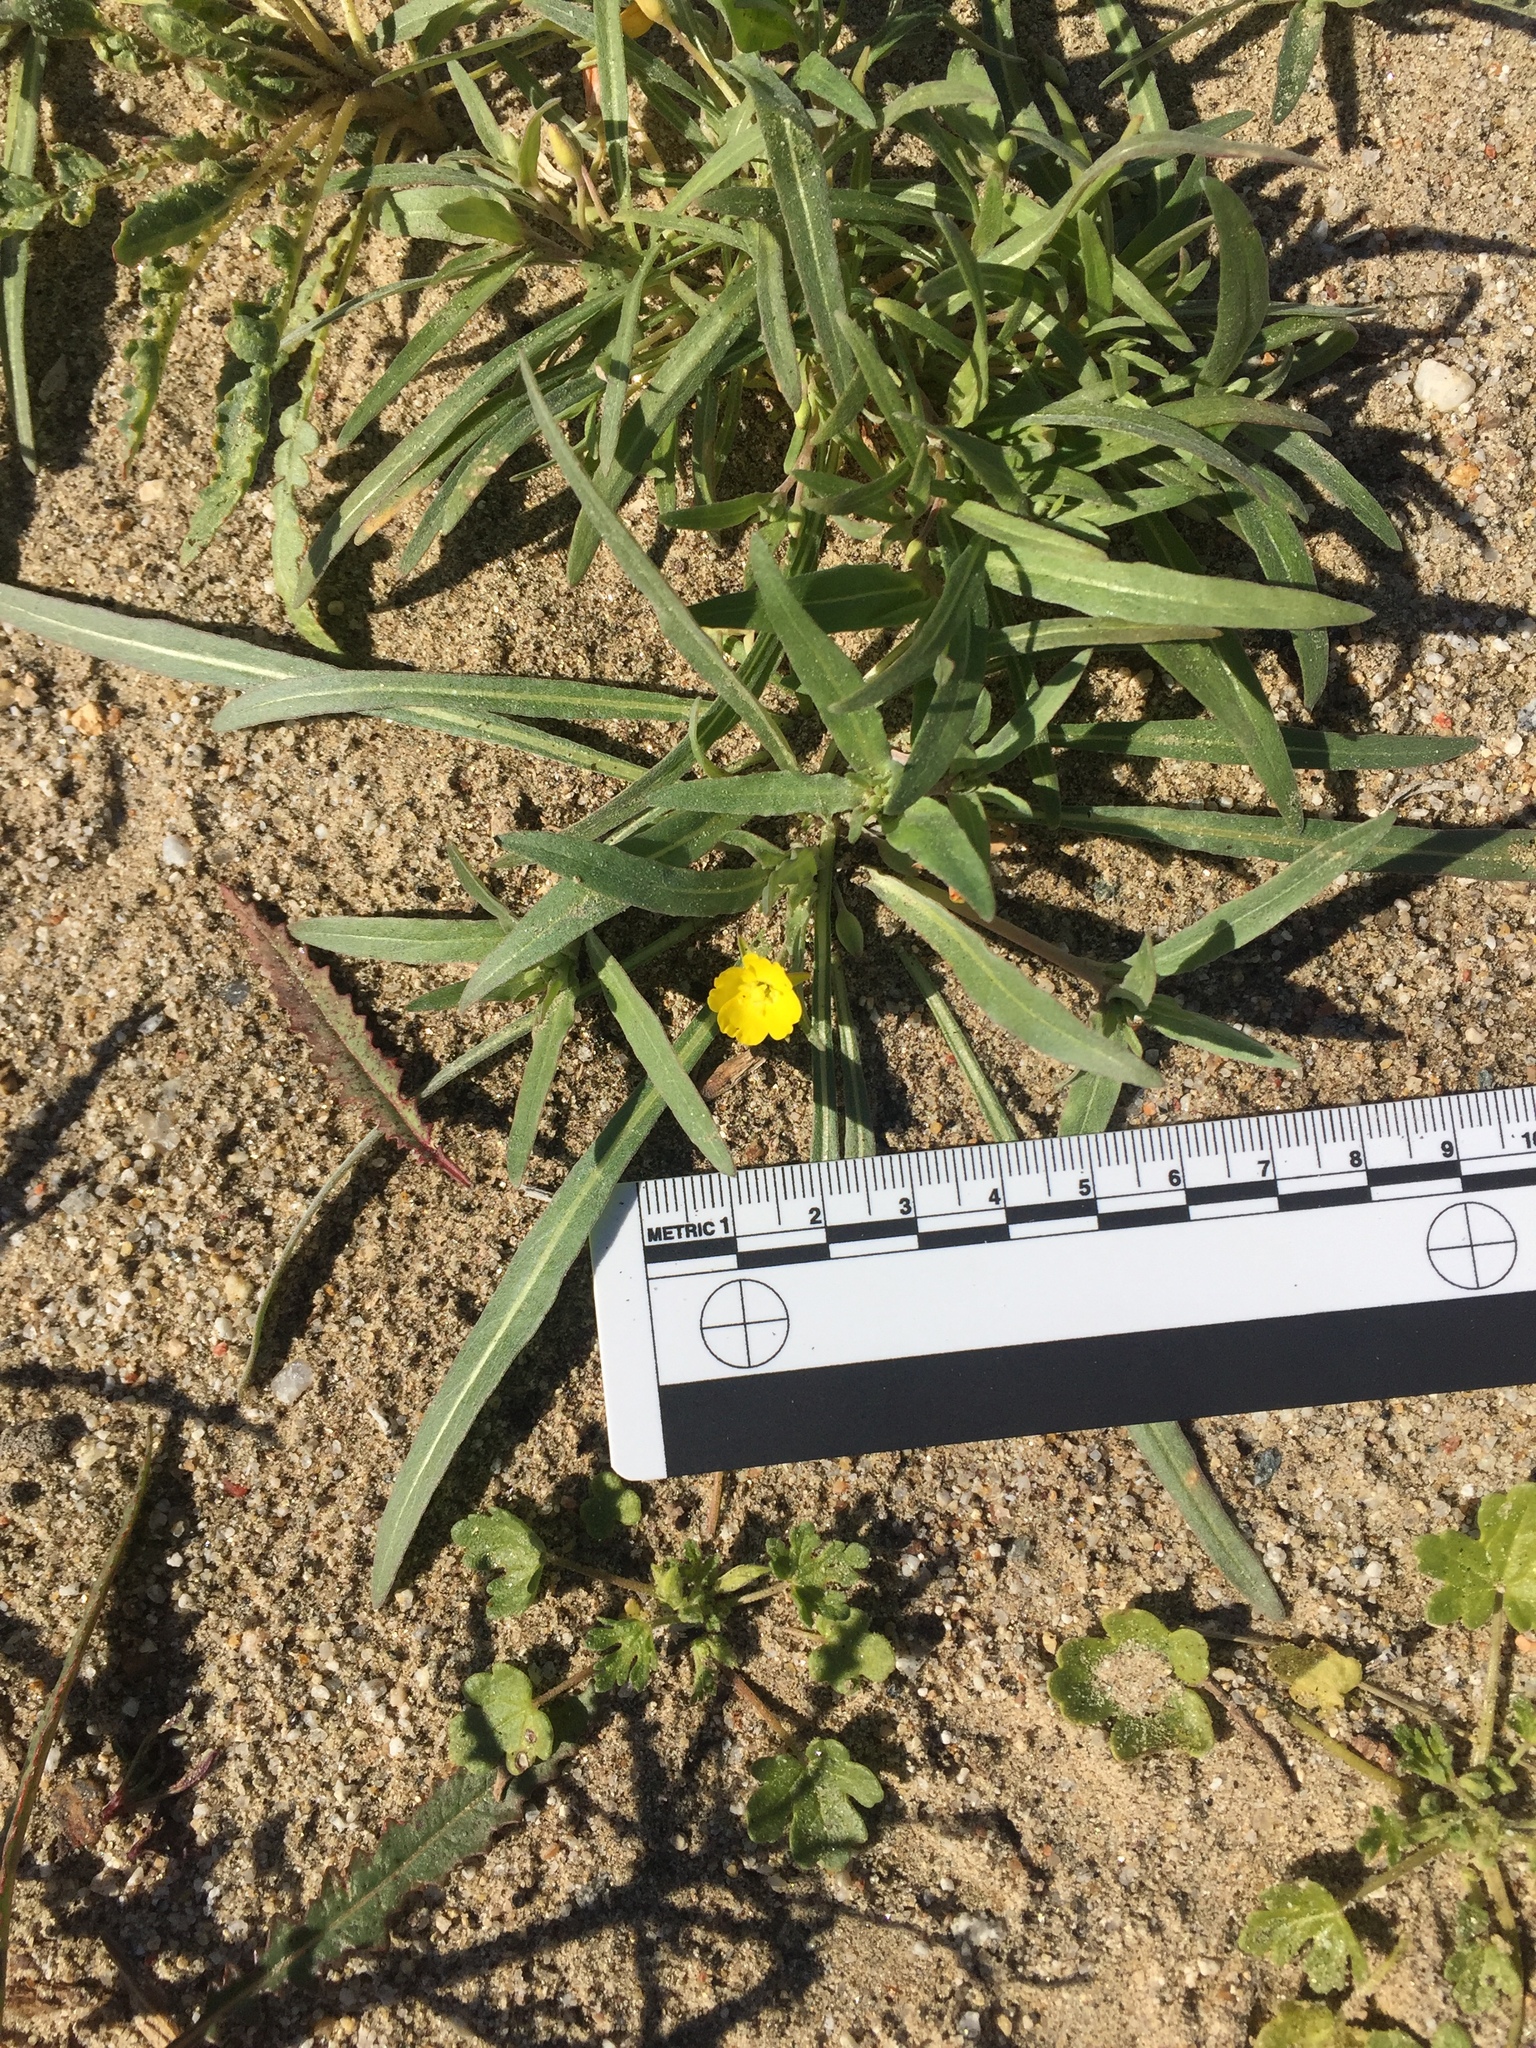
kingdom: Plantae
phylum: Tracheophyta
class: Magnoliopsida
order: Myrtales
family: Onagraceae
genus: Camissoniopsis
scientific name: Camissoniopsis pallida
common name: Paleyellow suncup
